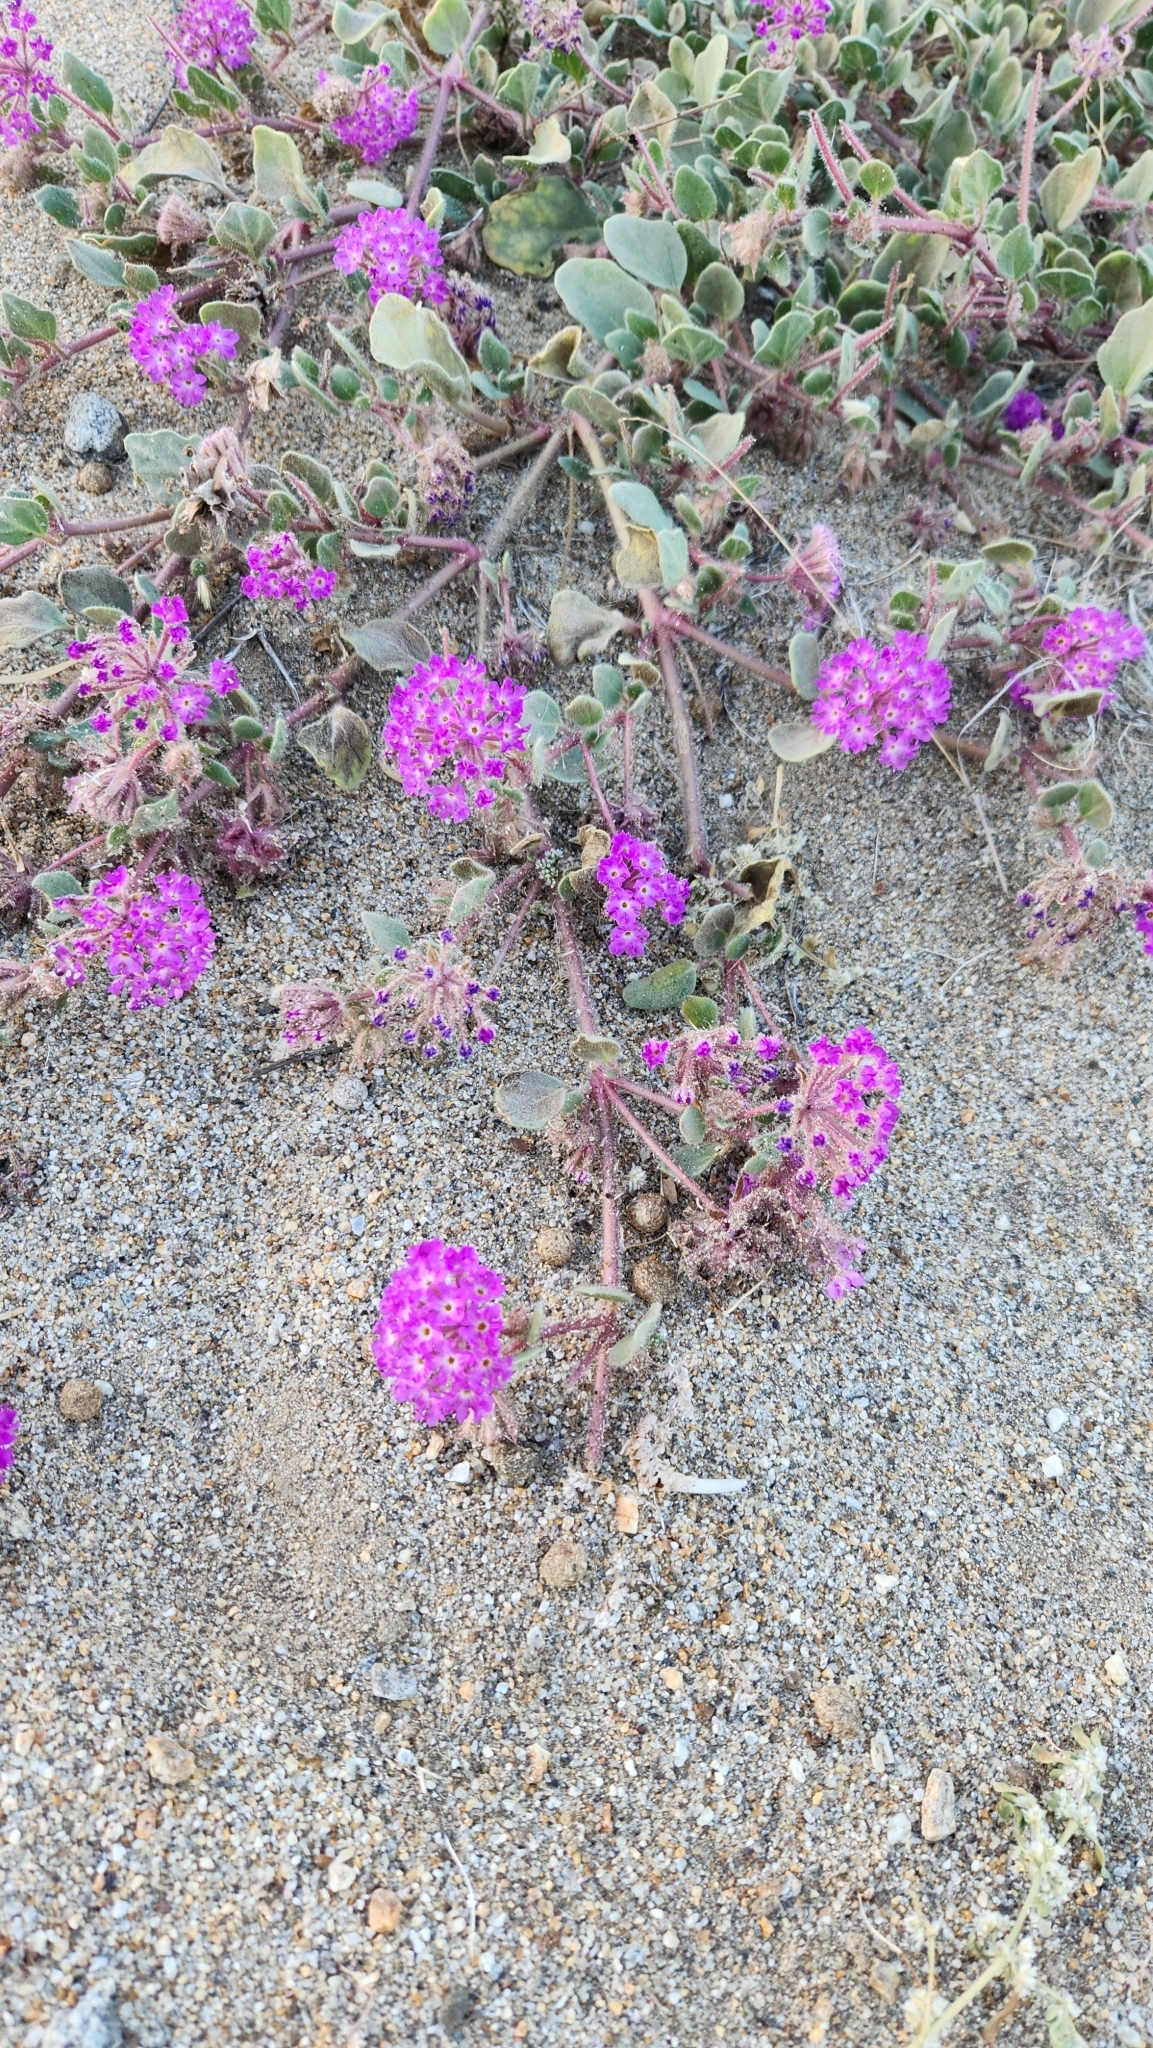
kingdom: Plantae
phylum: Tracheophyta
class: Magnoliopsida
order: Caryophyllales
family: Nyctaginaceae
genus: Abronia
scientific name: Abronia villosa
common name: Desert sand-verbena
